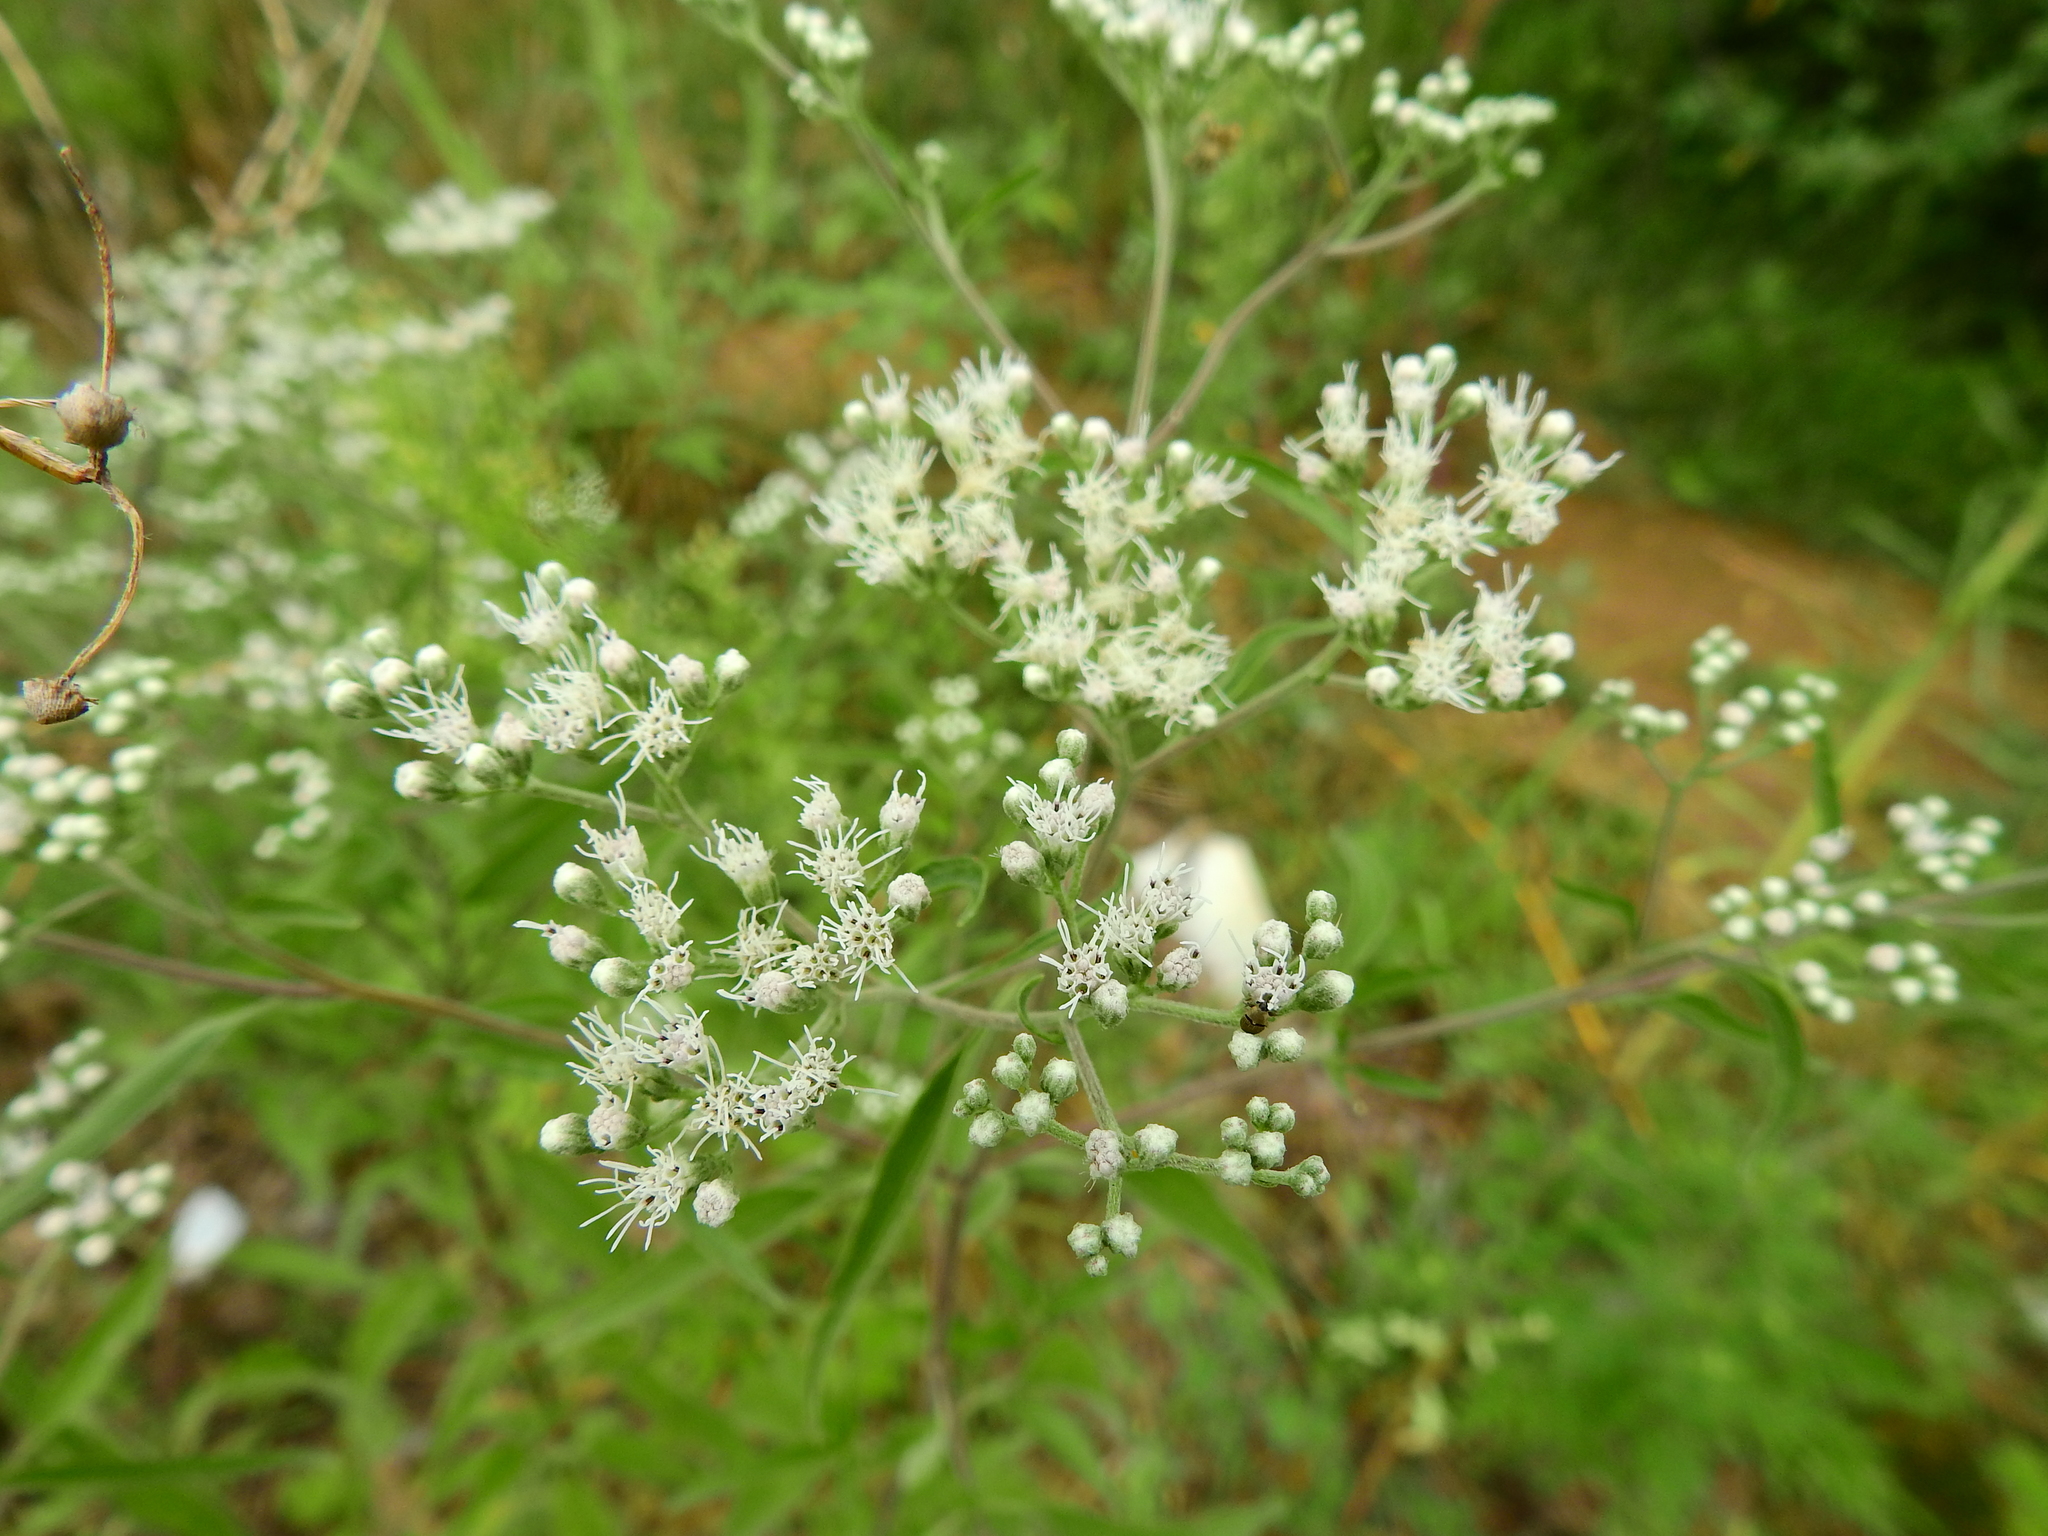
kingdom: Plantae
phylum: Tracheophyta
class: Magnoliopsida
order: Asterales
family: Asteraceae
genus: Eupatorium
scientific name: Eupatorium serotinum
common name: Late boneset
